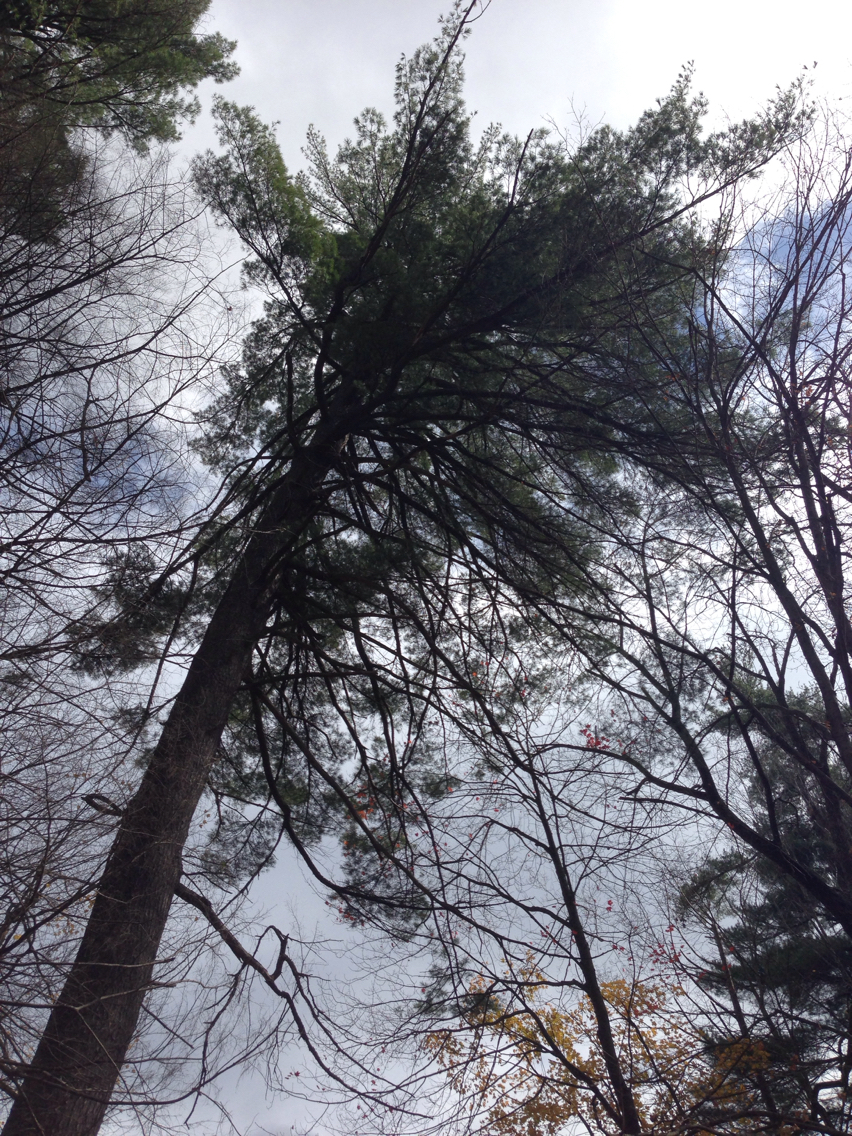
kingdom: Plantae
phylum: Tracheophyta
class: Pinopsida
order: Pinales
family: Pinaceae
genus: Pinus
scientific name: Pinus strobus
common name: Weymouth pine
